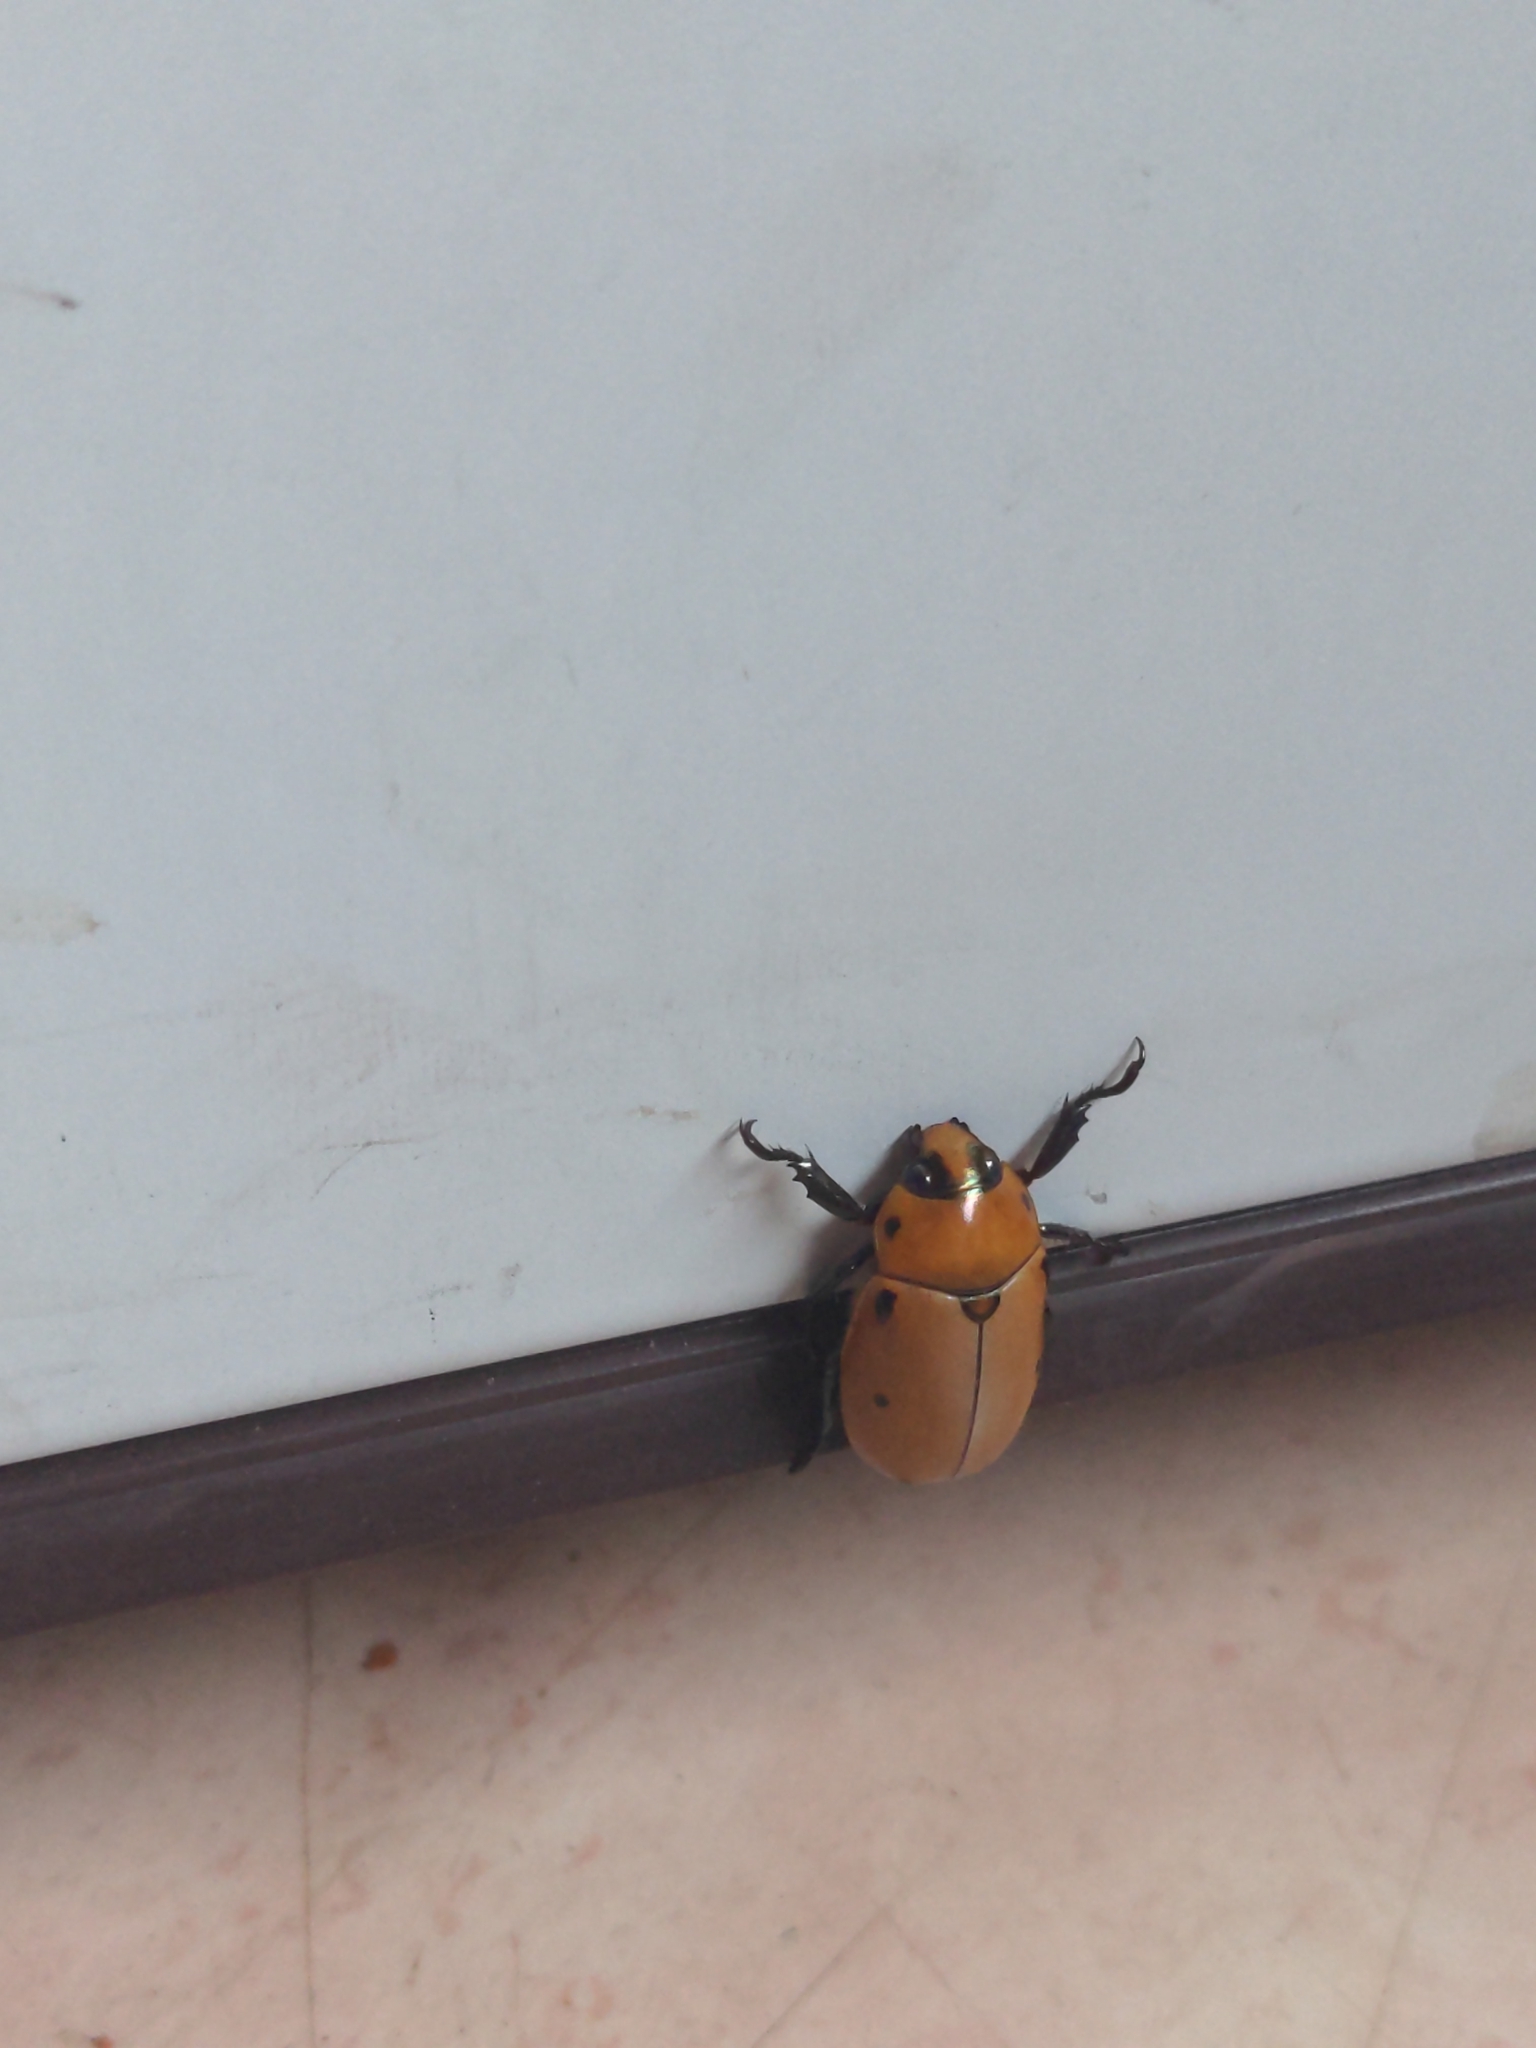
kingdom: Animalia
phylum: Arthropoda
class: Insecta
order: Coleoptera
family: Scarabaeidae
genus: Pelidnota
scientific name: Pelidnota punctata
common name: Grapevine beetle
